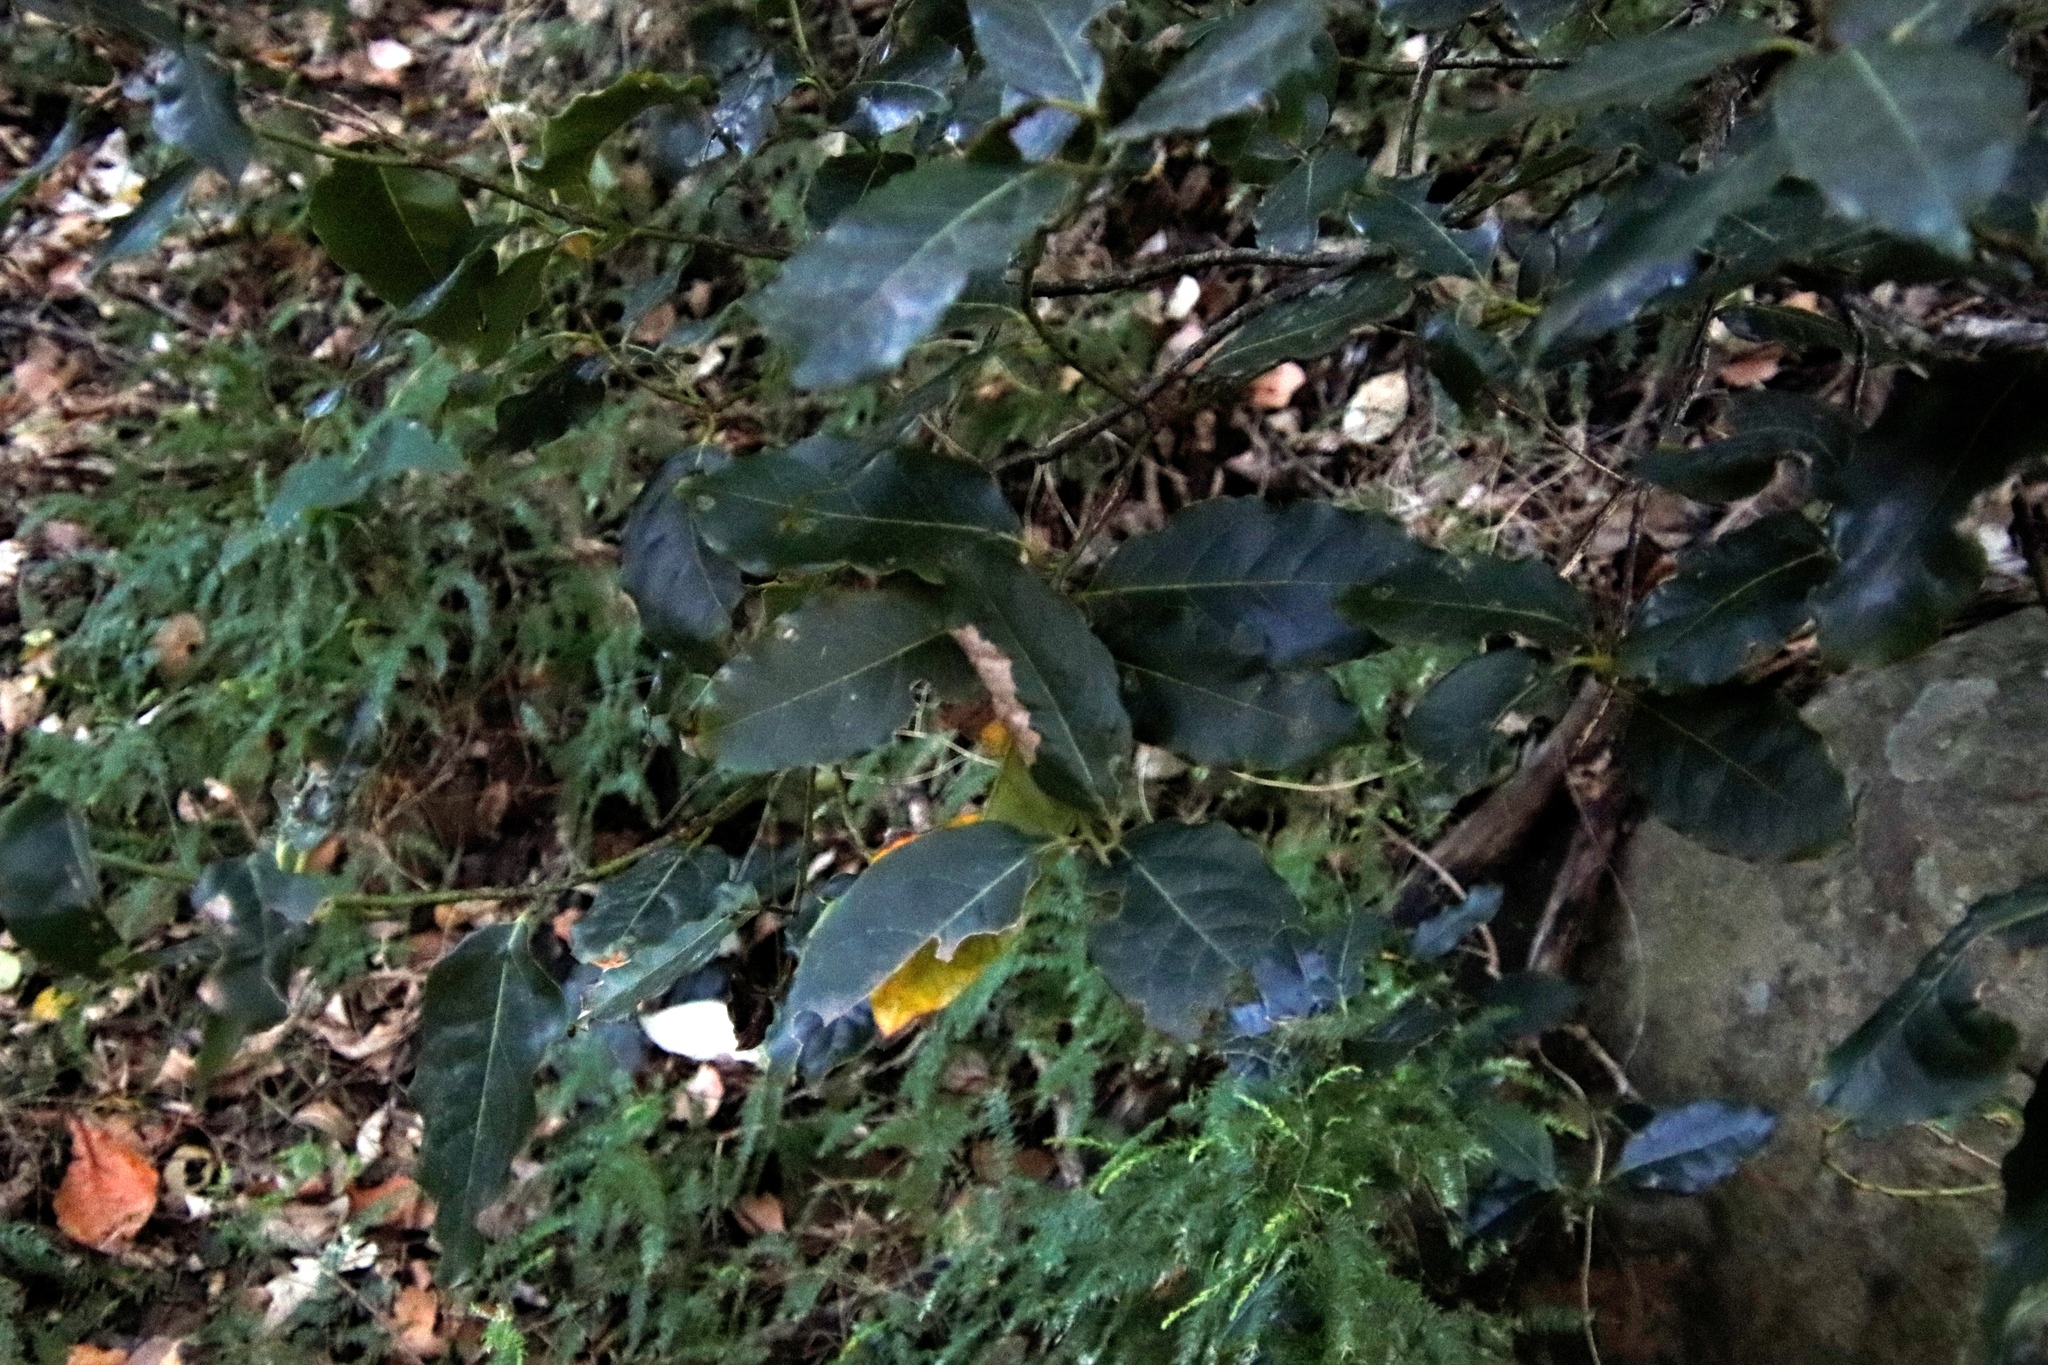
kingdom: Plantae
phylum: Tracheophyta
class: Magnoliopsida
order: Laurales
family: Lauraceae
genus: Ocotea
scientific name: Ocotea bullata
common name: Black stinkwood
